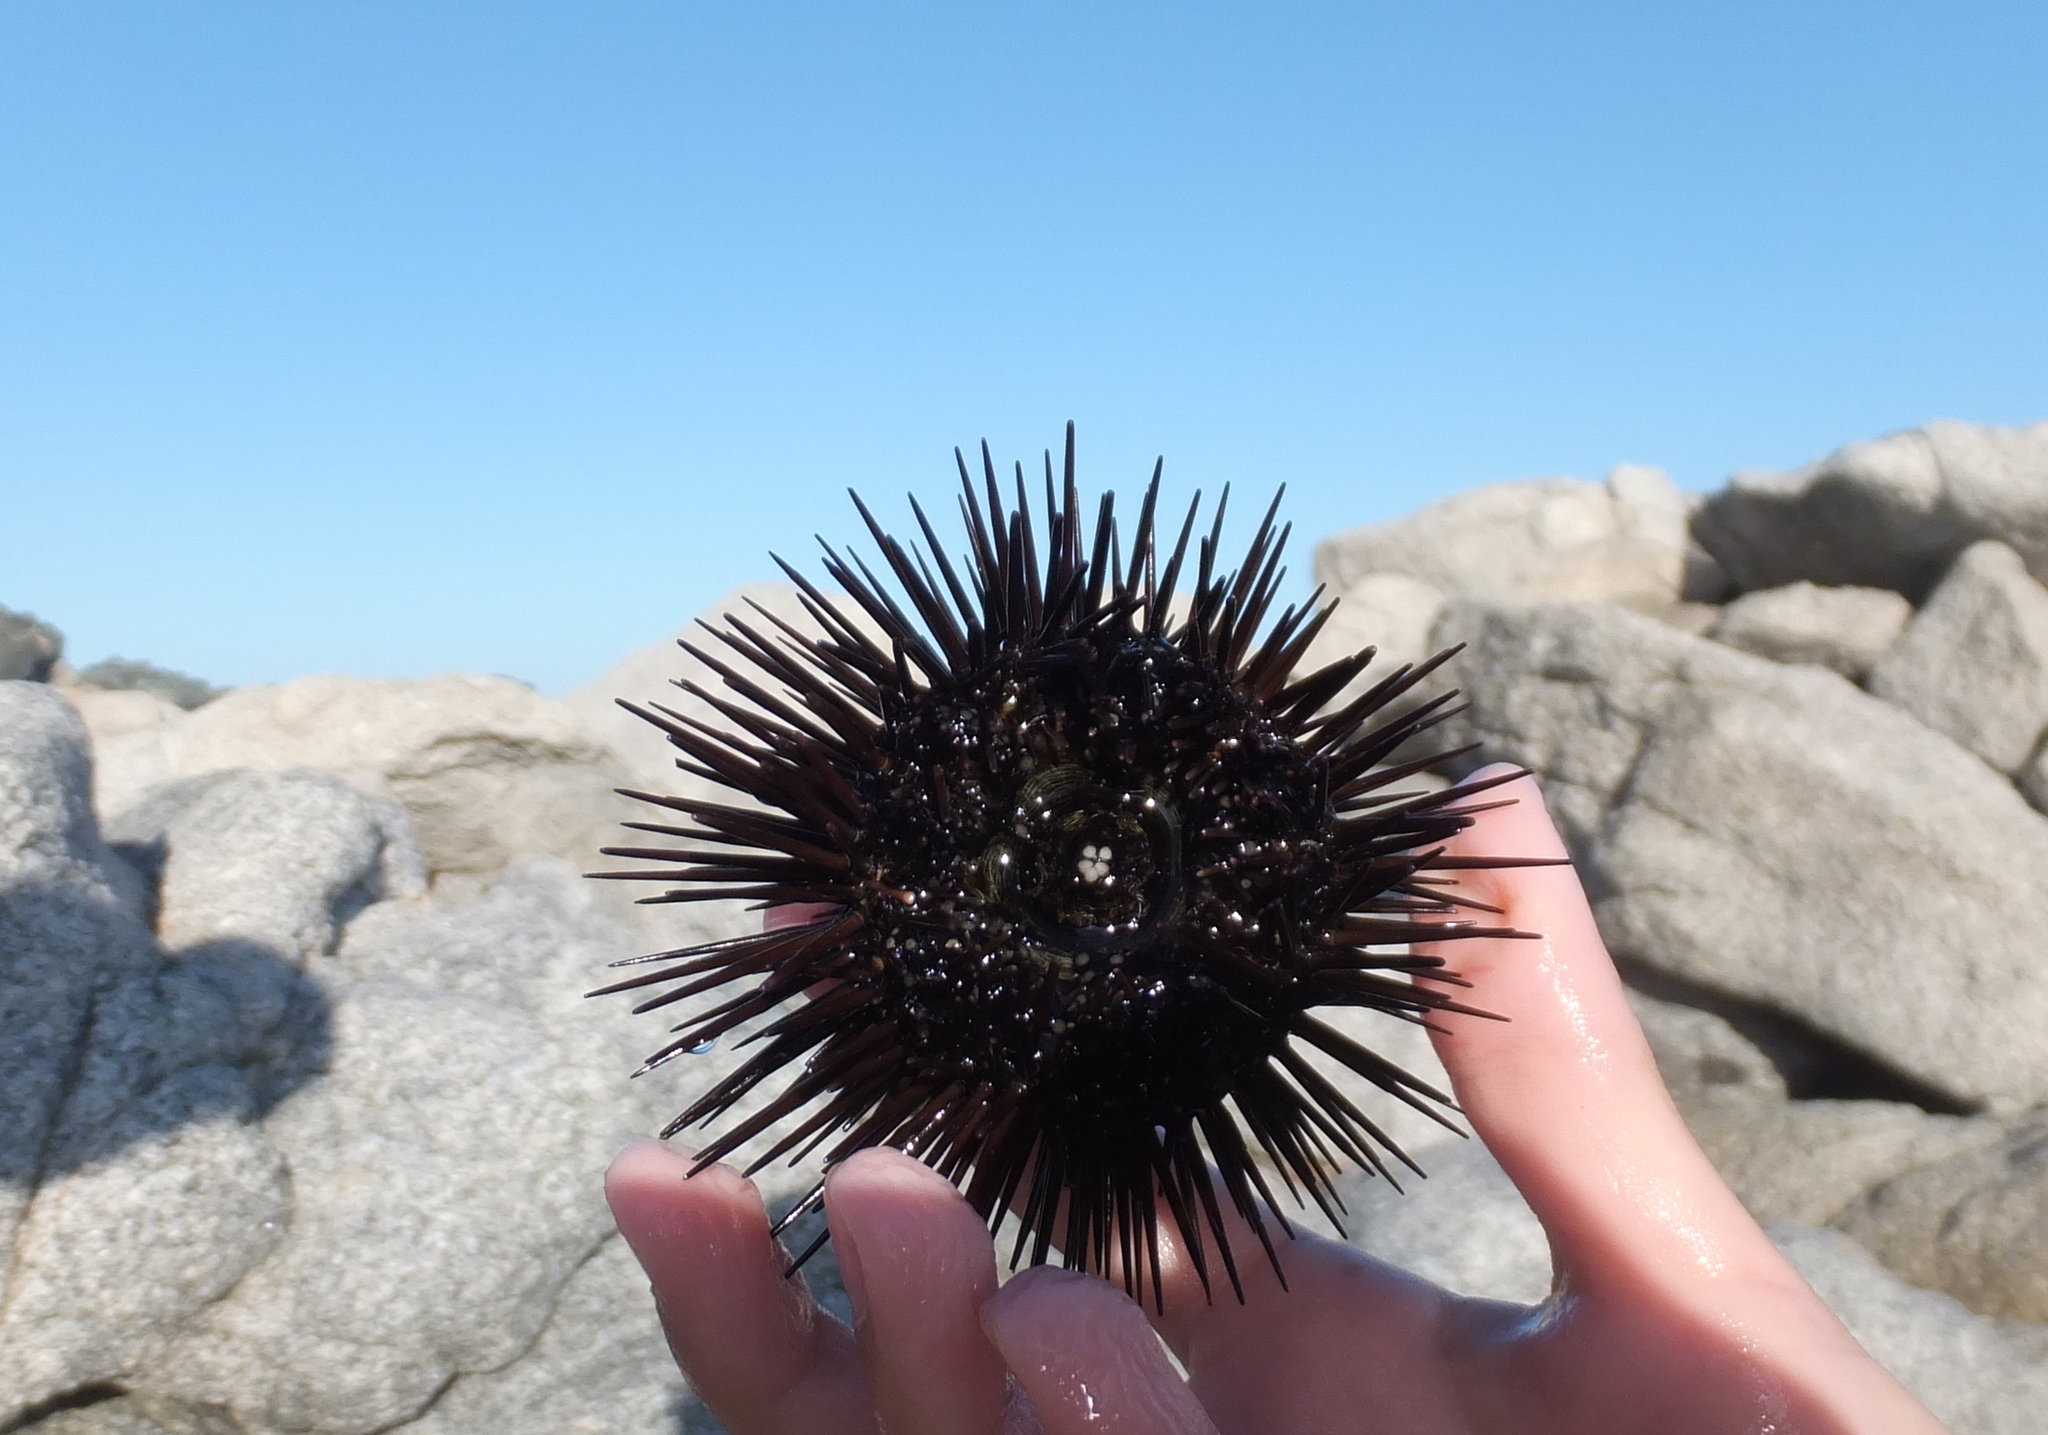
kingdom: Animalia
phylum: Echinodermata
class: Echinoidea
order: Arbacioida
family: Arbaciidae
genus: Arbacia
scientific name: Arbacia lixula
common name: Black sea urchin
